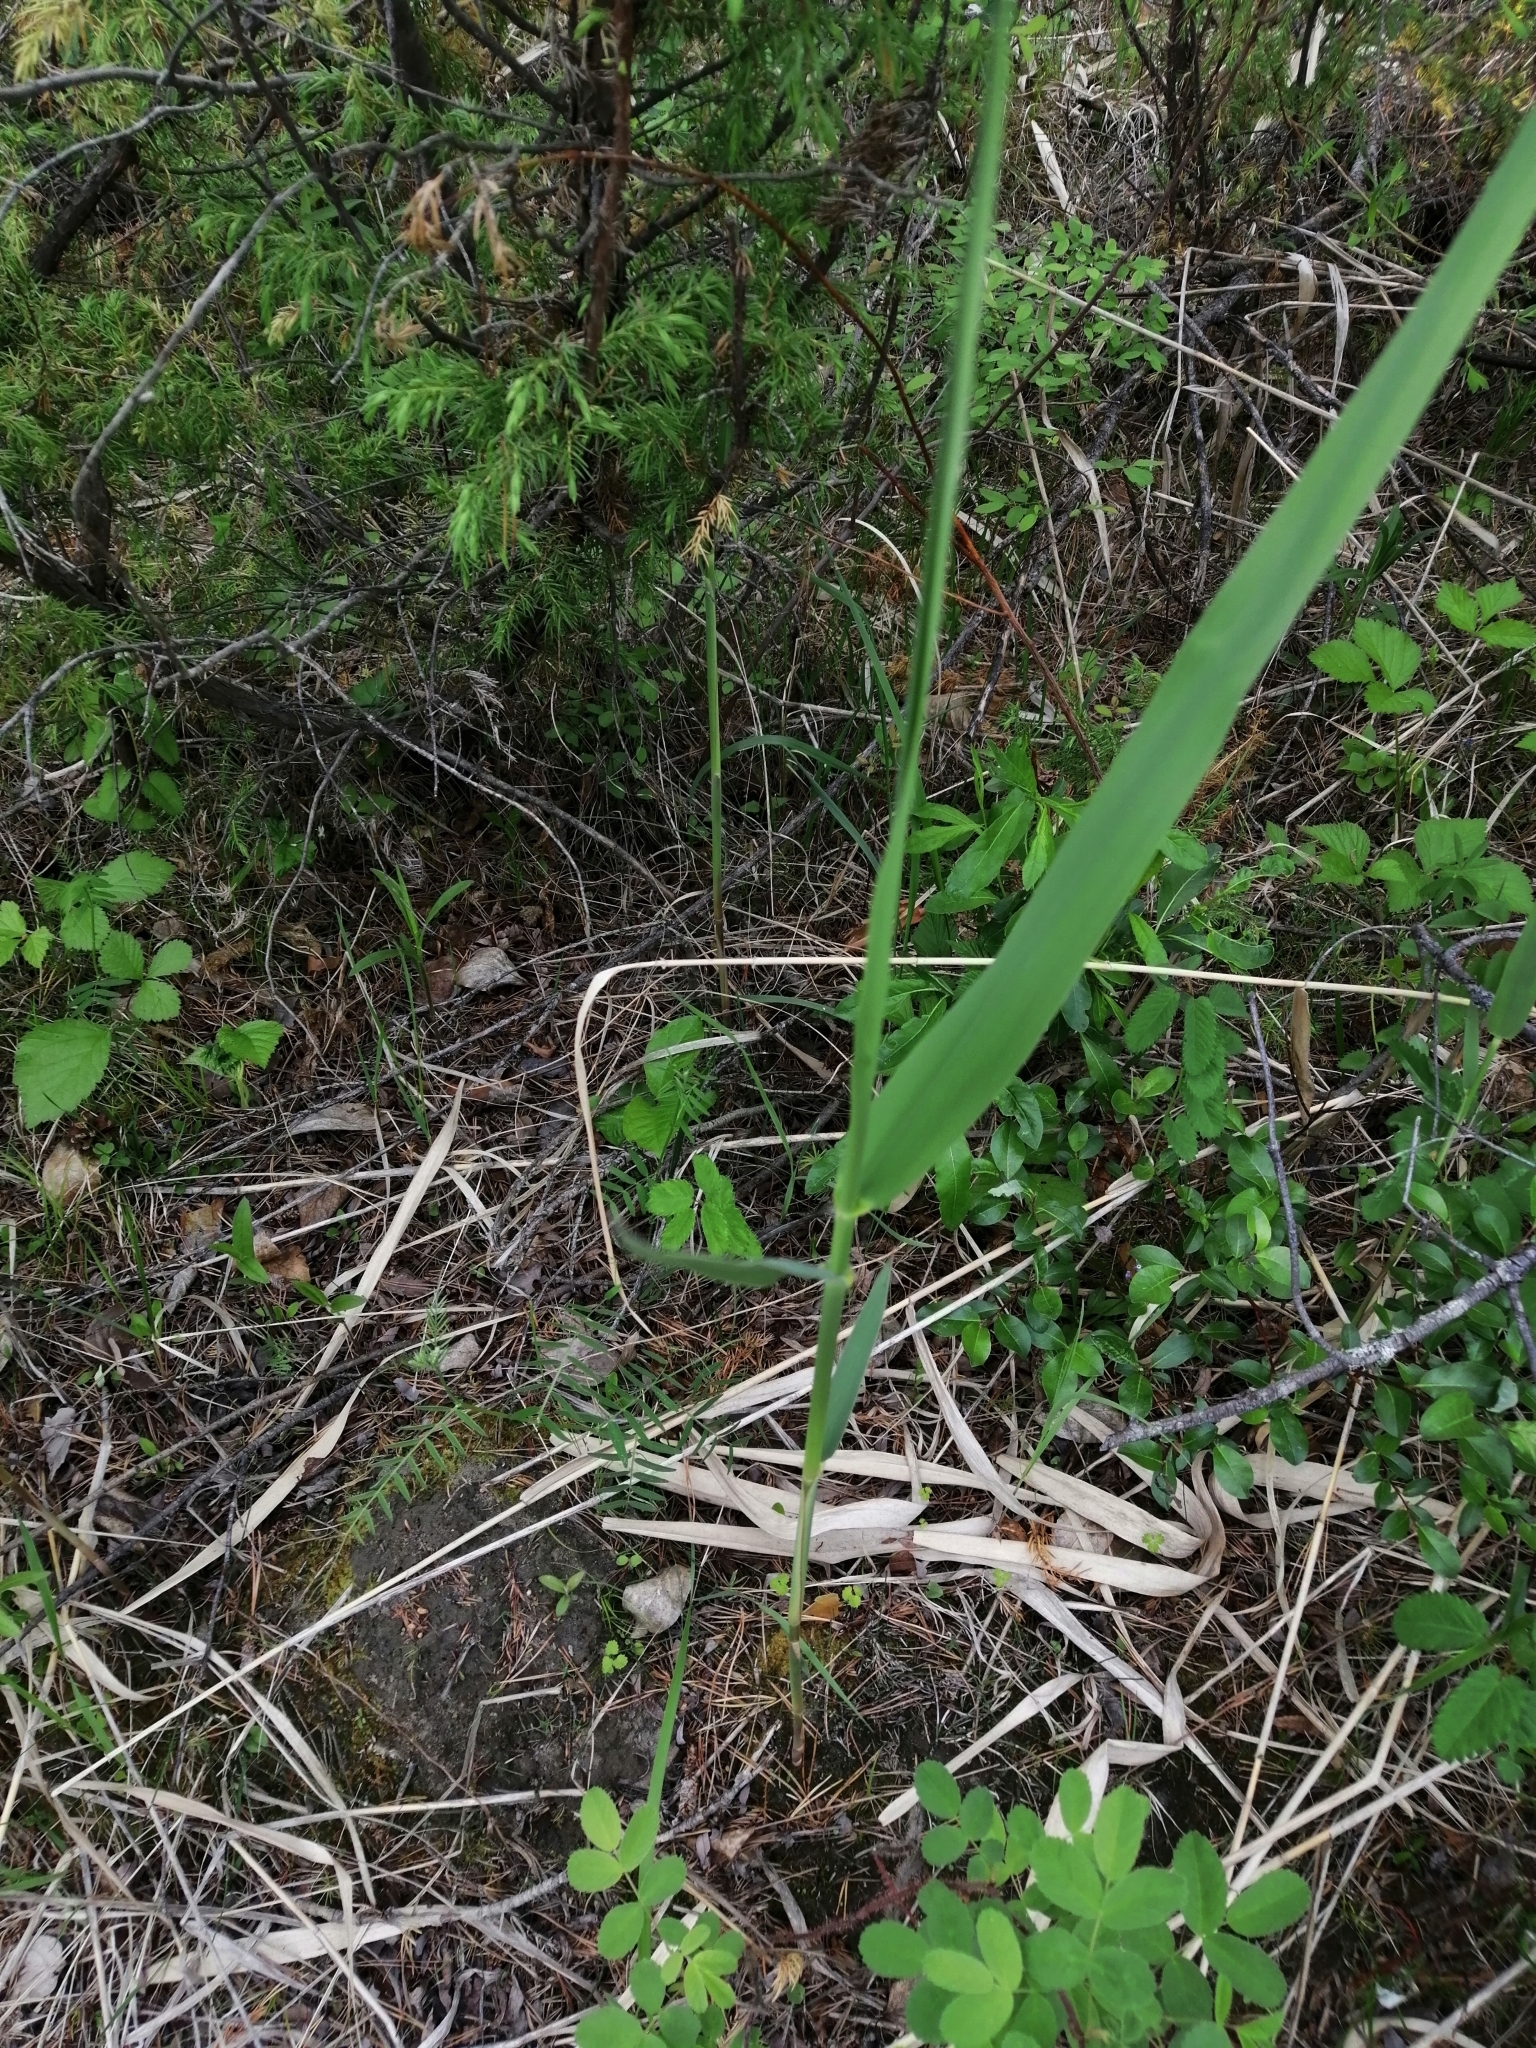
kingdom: Plantae
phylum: Tracheophyta
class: Liliopsida
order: Poales
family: Poaceae
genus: Phragmites
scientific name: Phragmites australis
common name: Common reed
